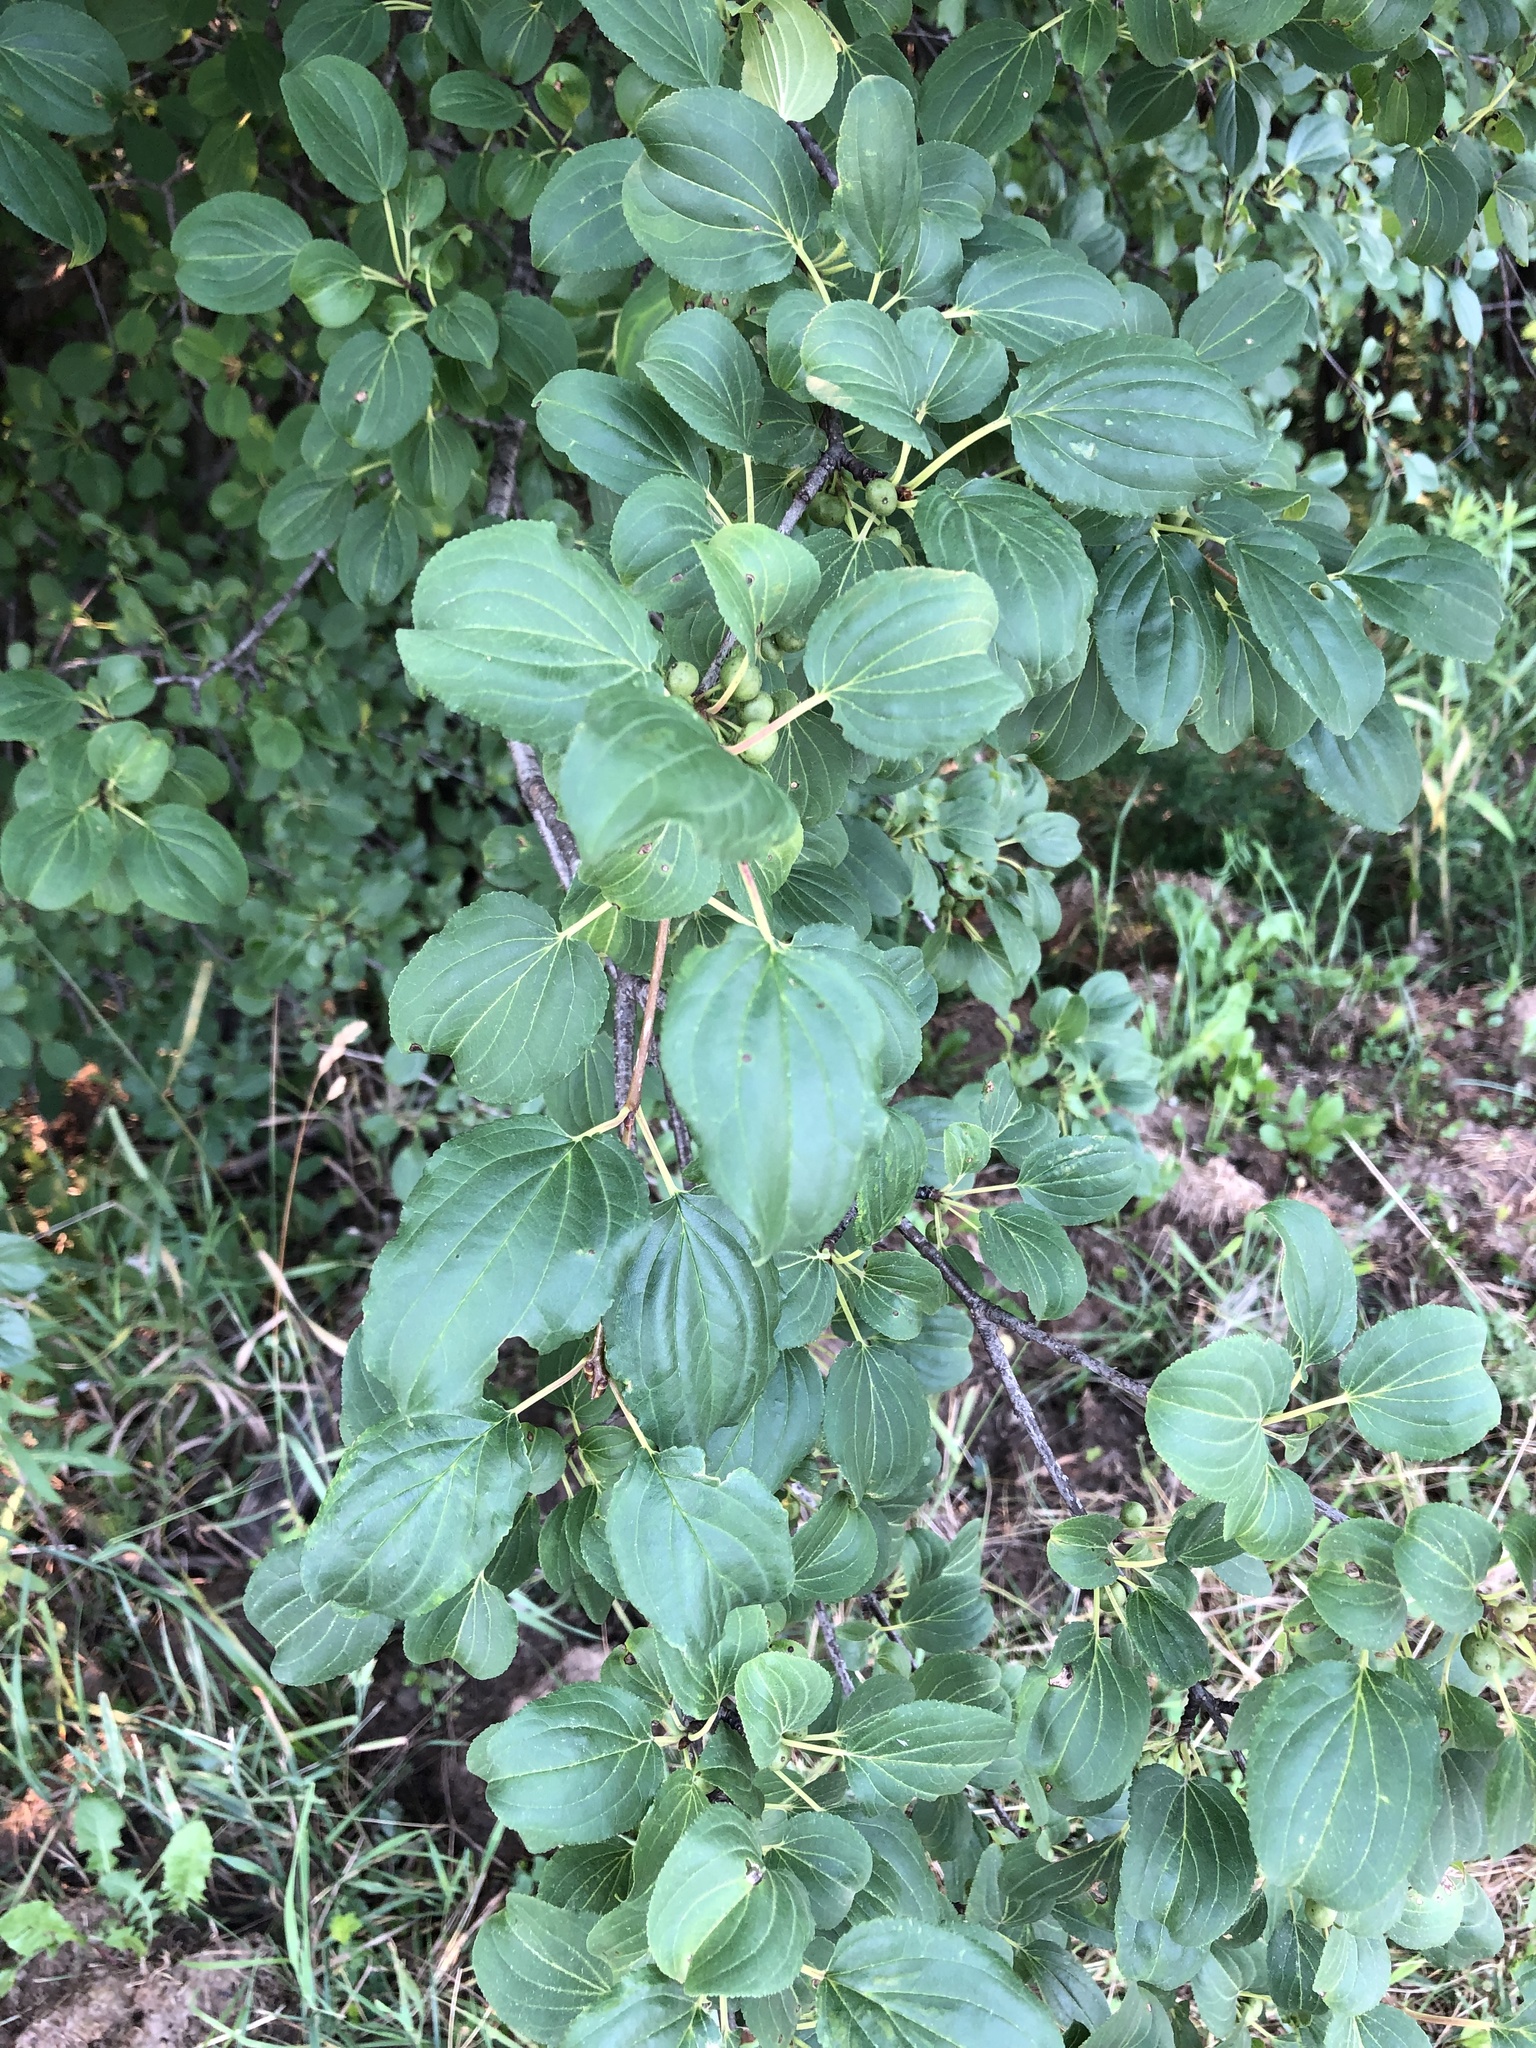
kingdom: Plantae
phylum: Tracheophyta
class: Magnoliopsida
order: Rosales
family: Rhamnaceae
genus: Rhamnus
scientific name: Rhamnus cathartica
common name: Common buckthorn
